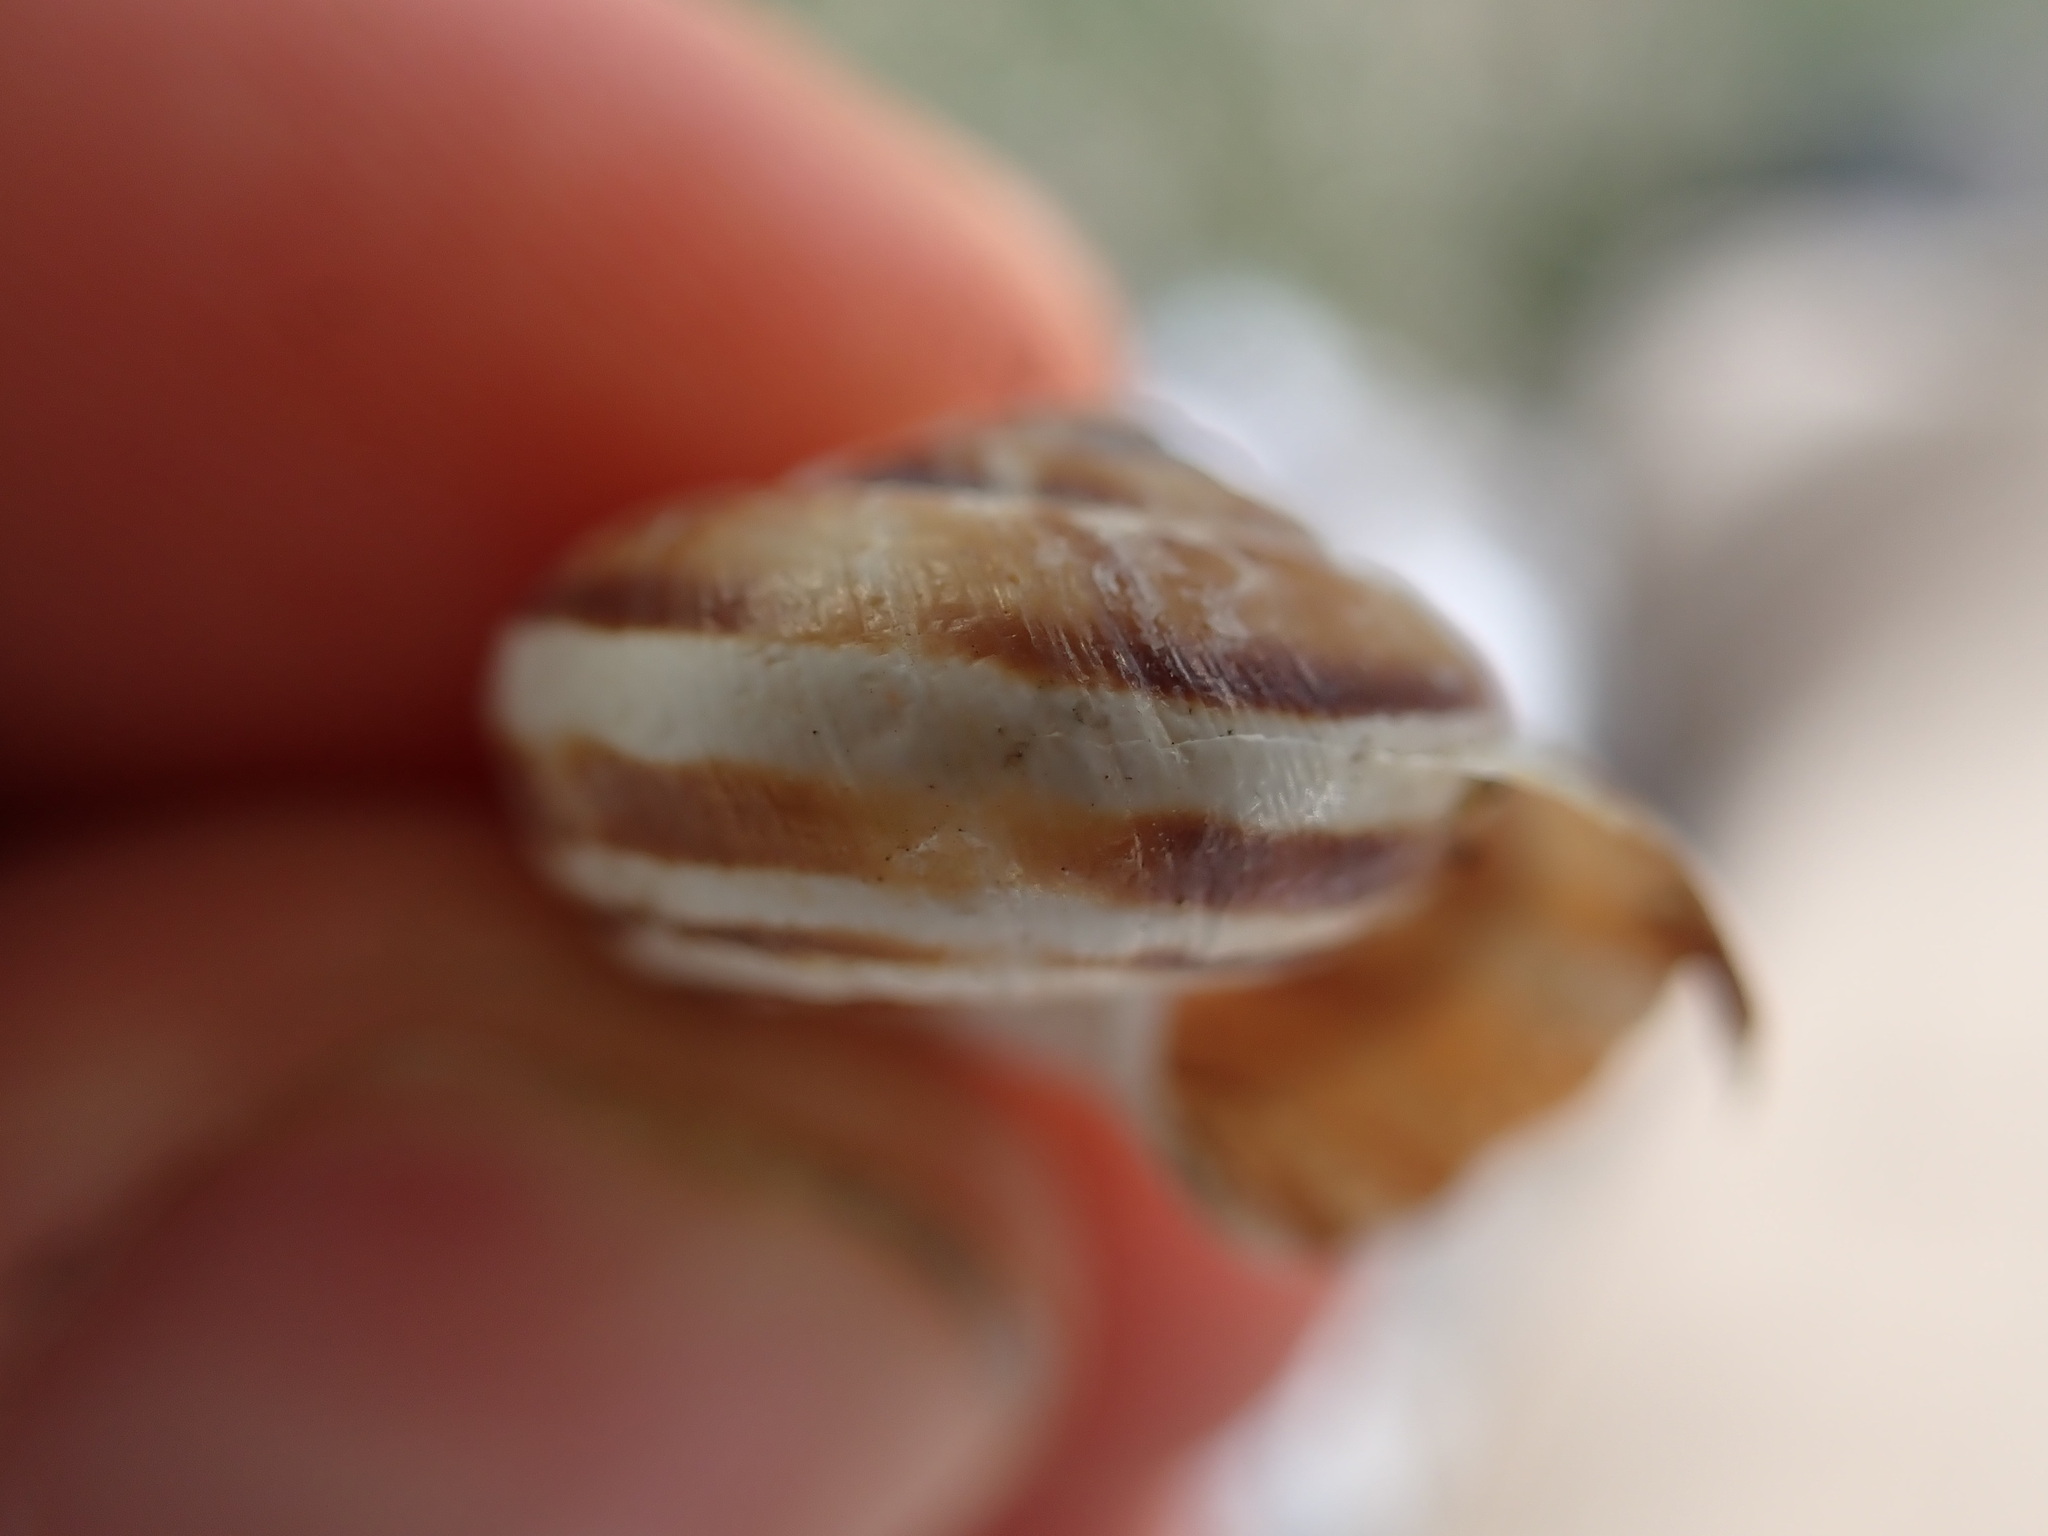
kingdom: Animalia
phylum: Mollusca
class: Gastropoda
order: Stylommatophora
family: Geomitridae
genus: Xerosecta
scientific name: Xerosecta cespitum
